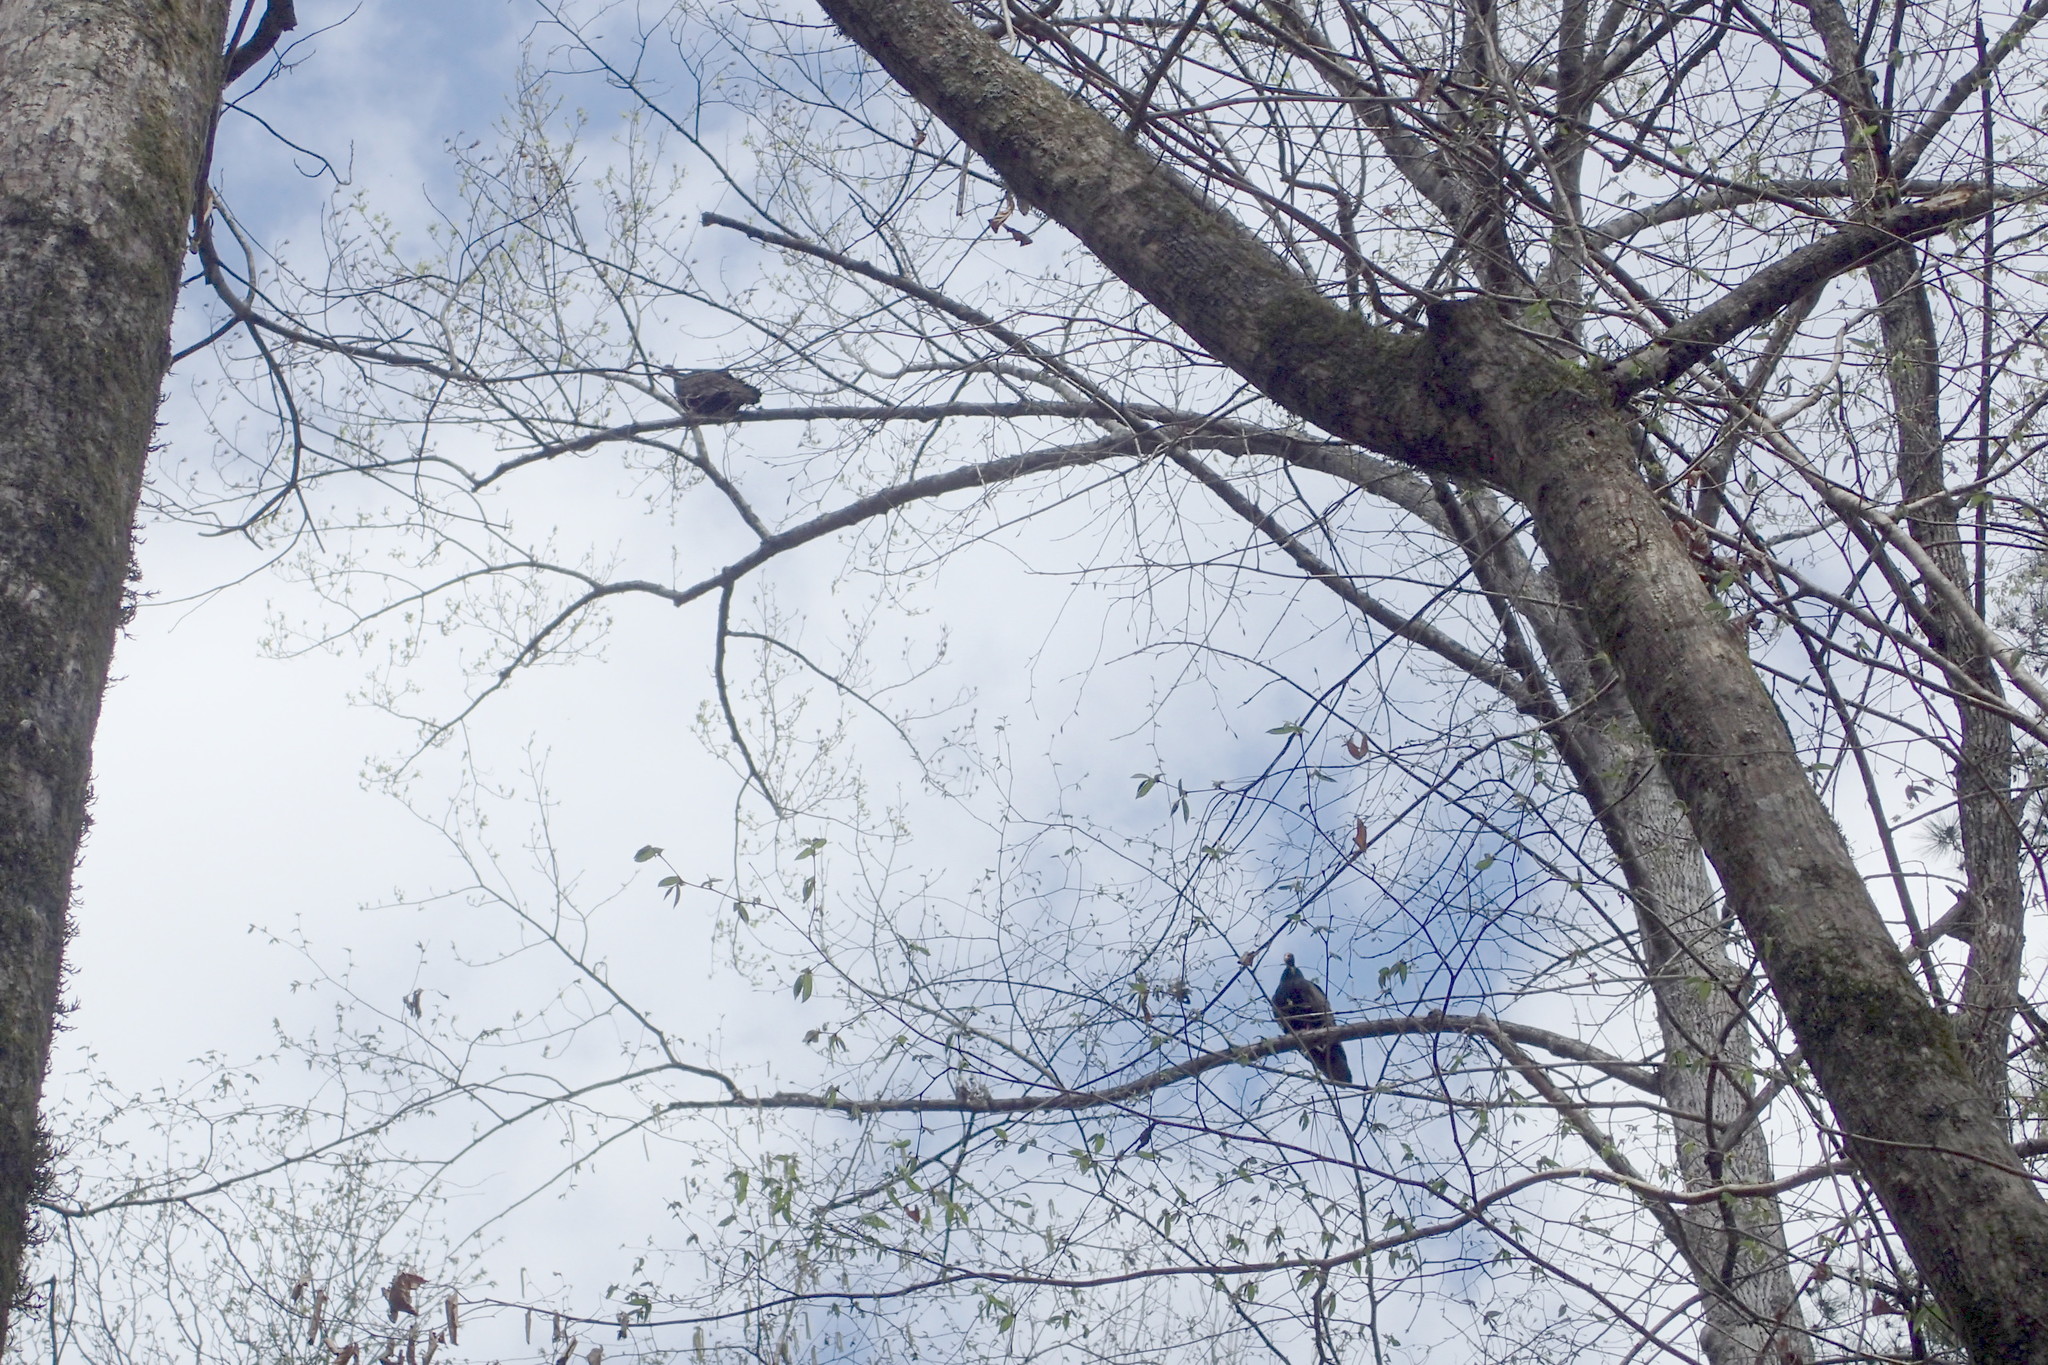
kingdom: Animalia
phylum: Chordata
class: Aves
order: Accipitriformes
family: Cathartidae
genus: Cathartes
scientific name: Cathartes aura
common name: Turkey vulture
